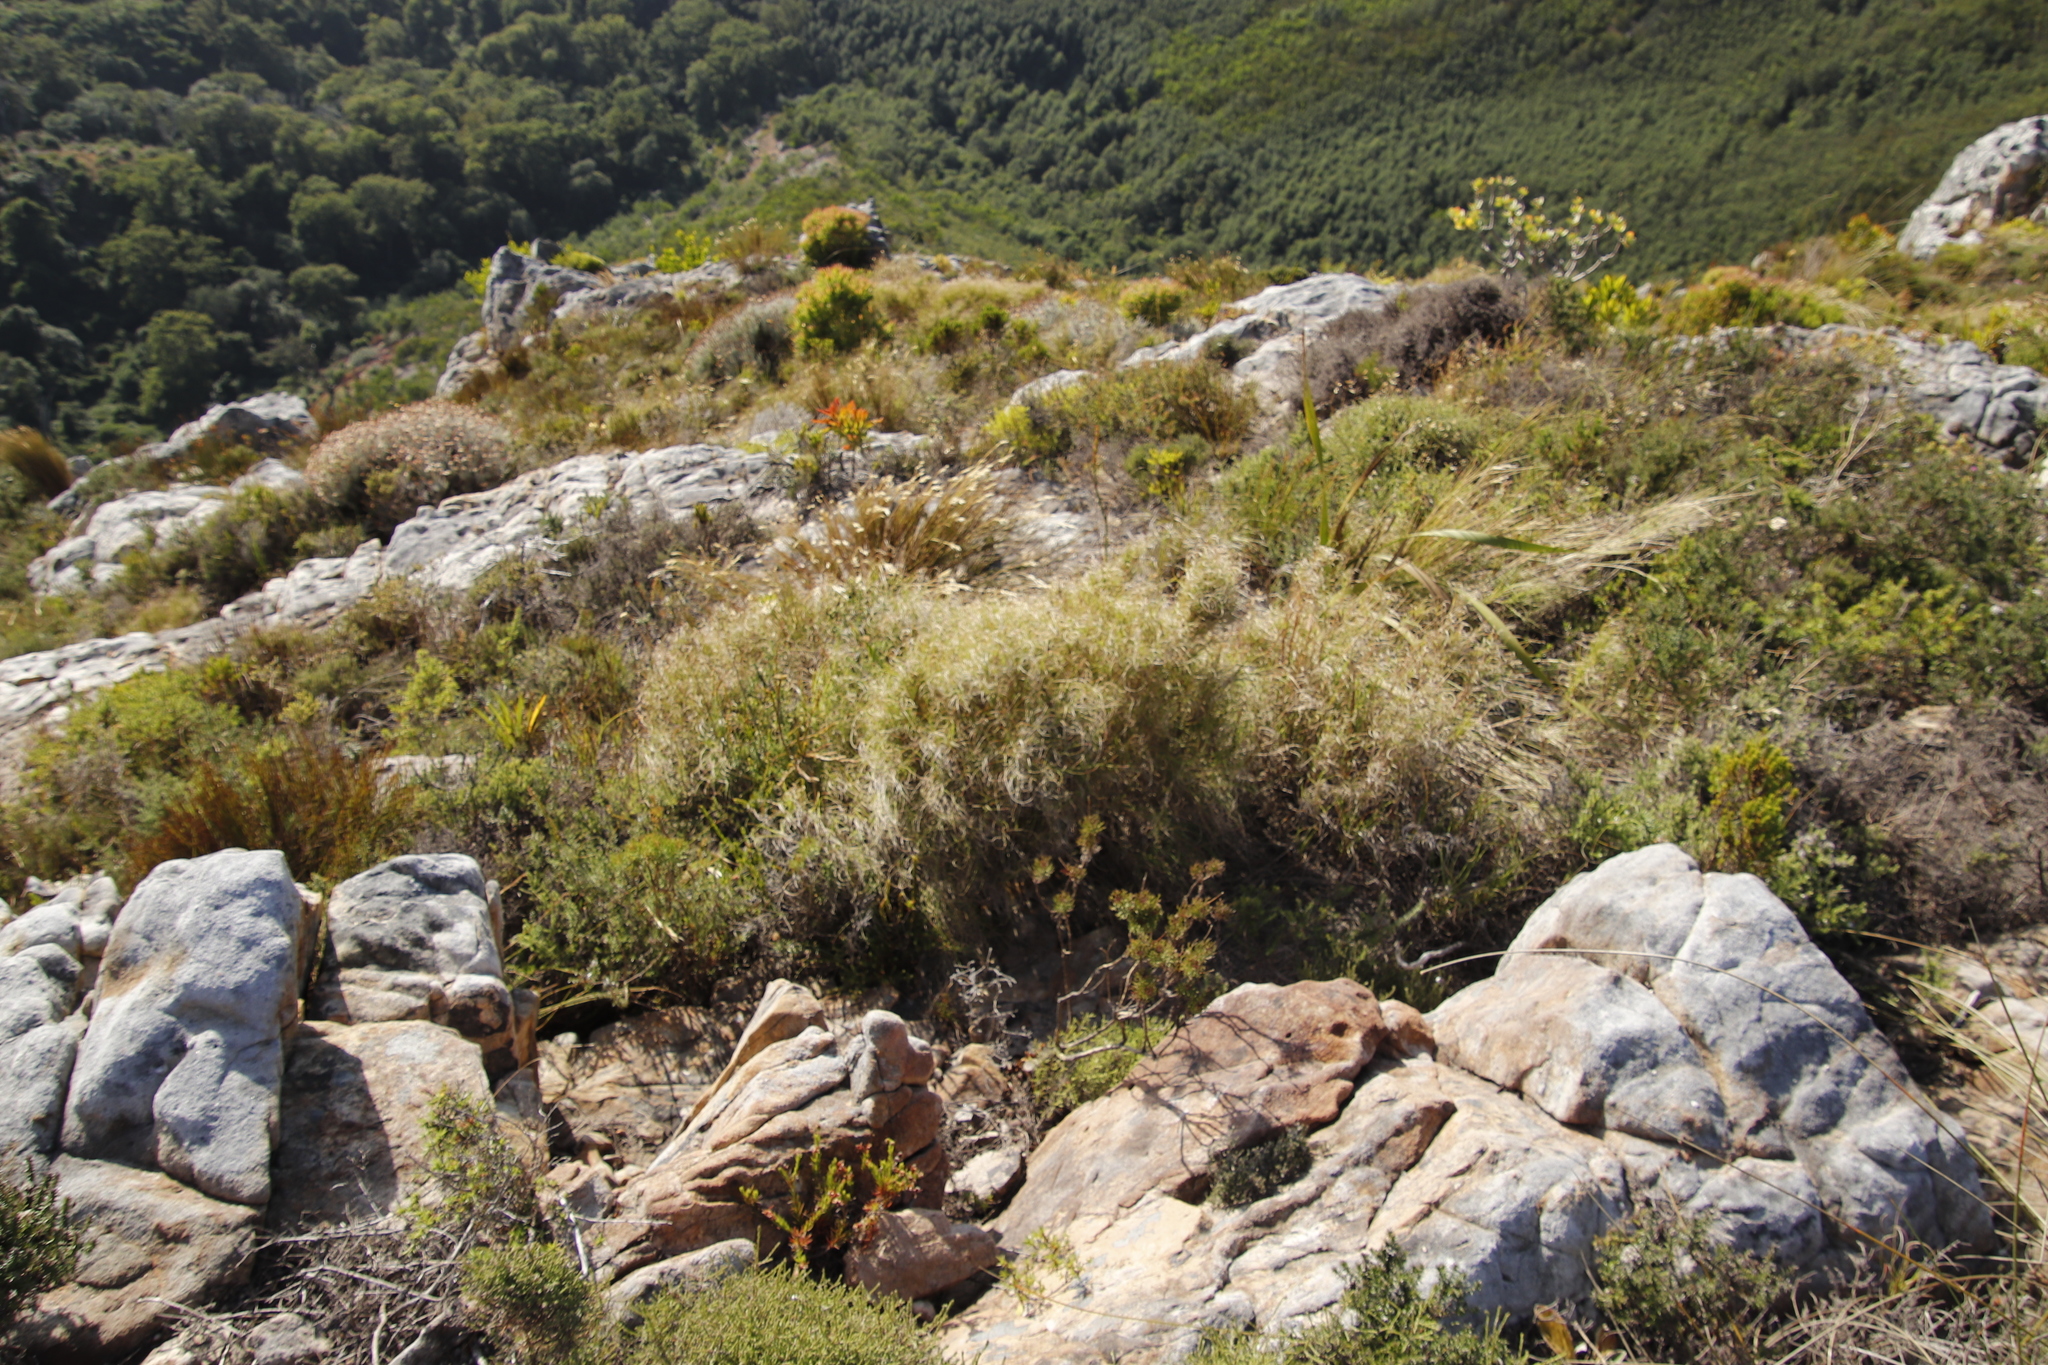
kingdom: Plantae
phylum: Tracheophyta
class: Liliopsida
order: Poales
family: Poaceae
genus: Pseudopentameris
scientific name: Pseudopentameris macrantha
